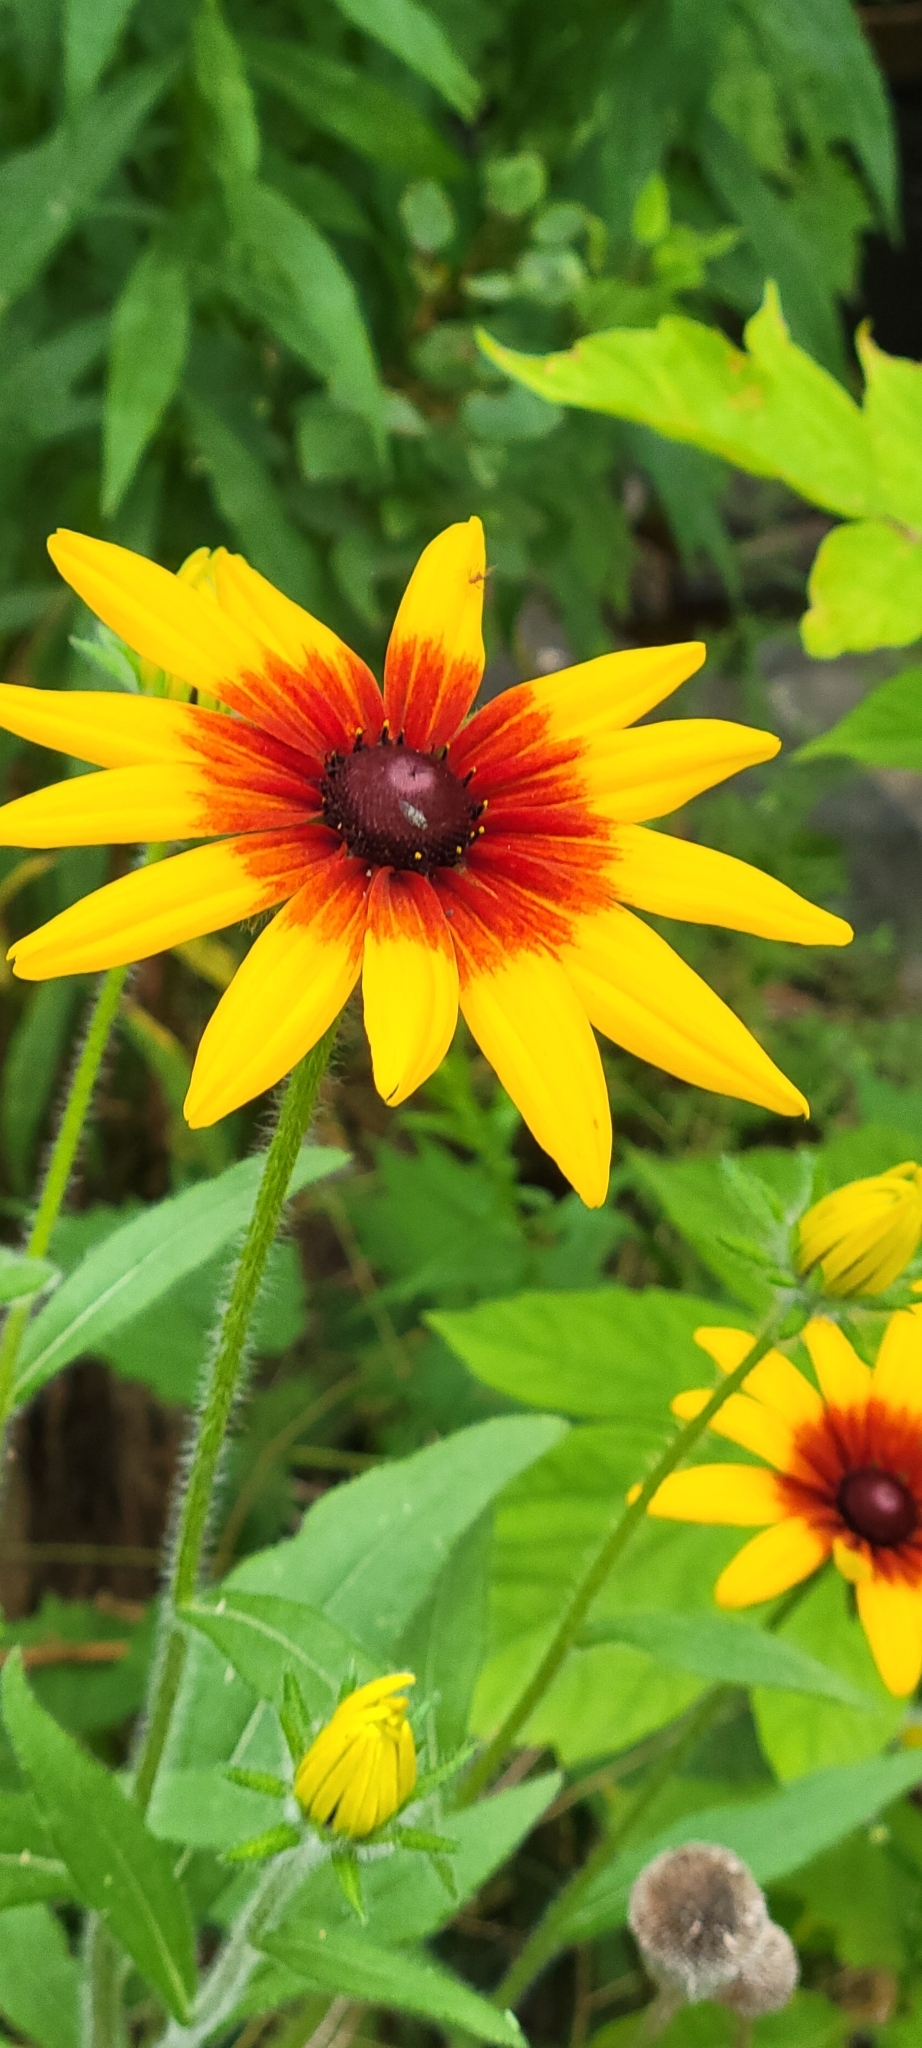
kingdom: Plantae
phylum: Tracheophyta
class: Magnoliopsida
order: Asterales
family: Asteraceae
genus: Rudbeckia
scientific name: Rudbeckia hirta
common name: Black-eyed-susan
